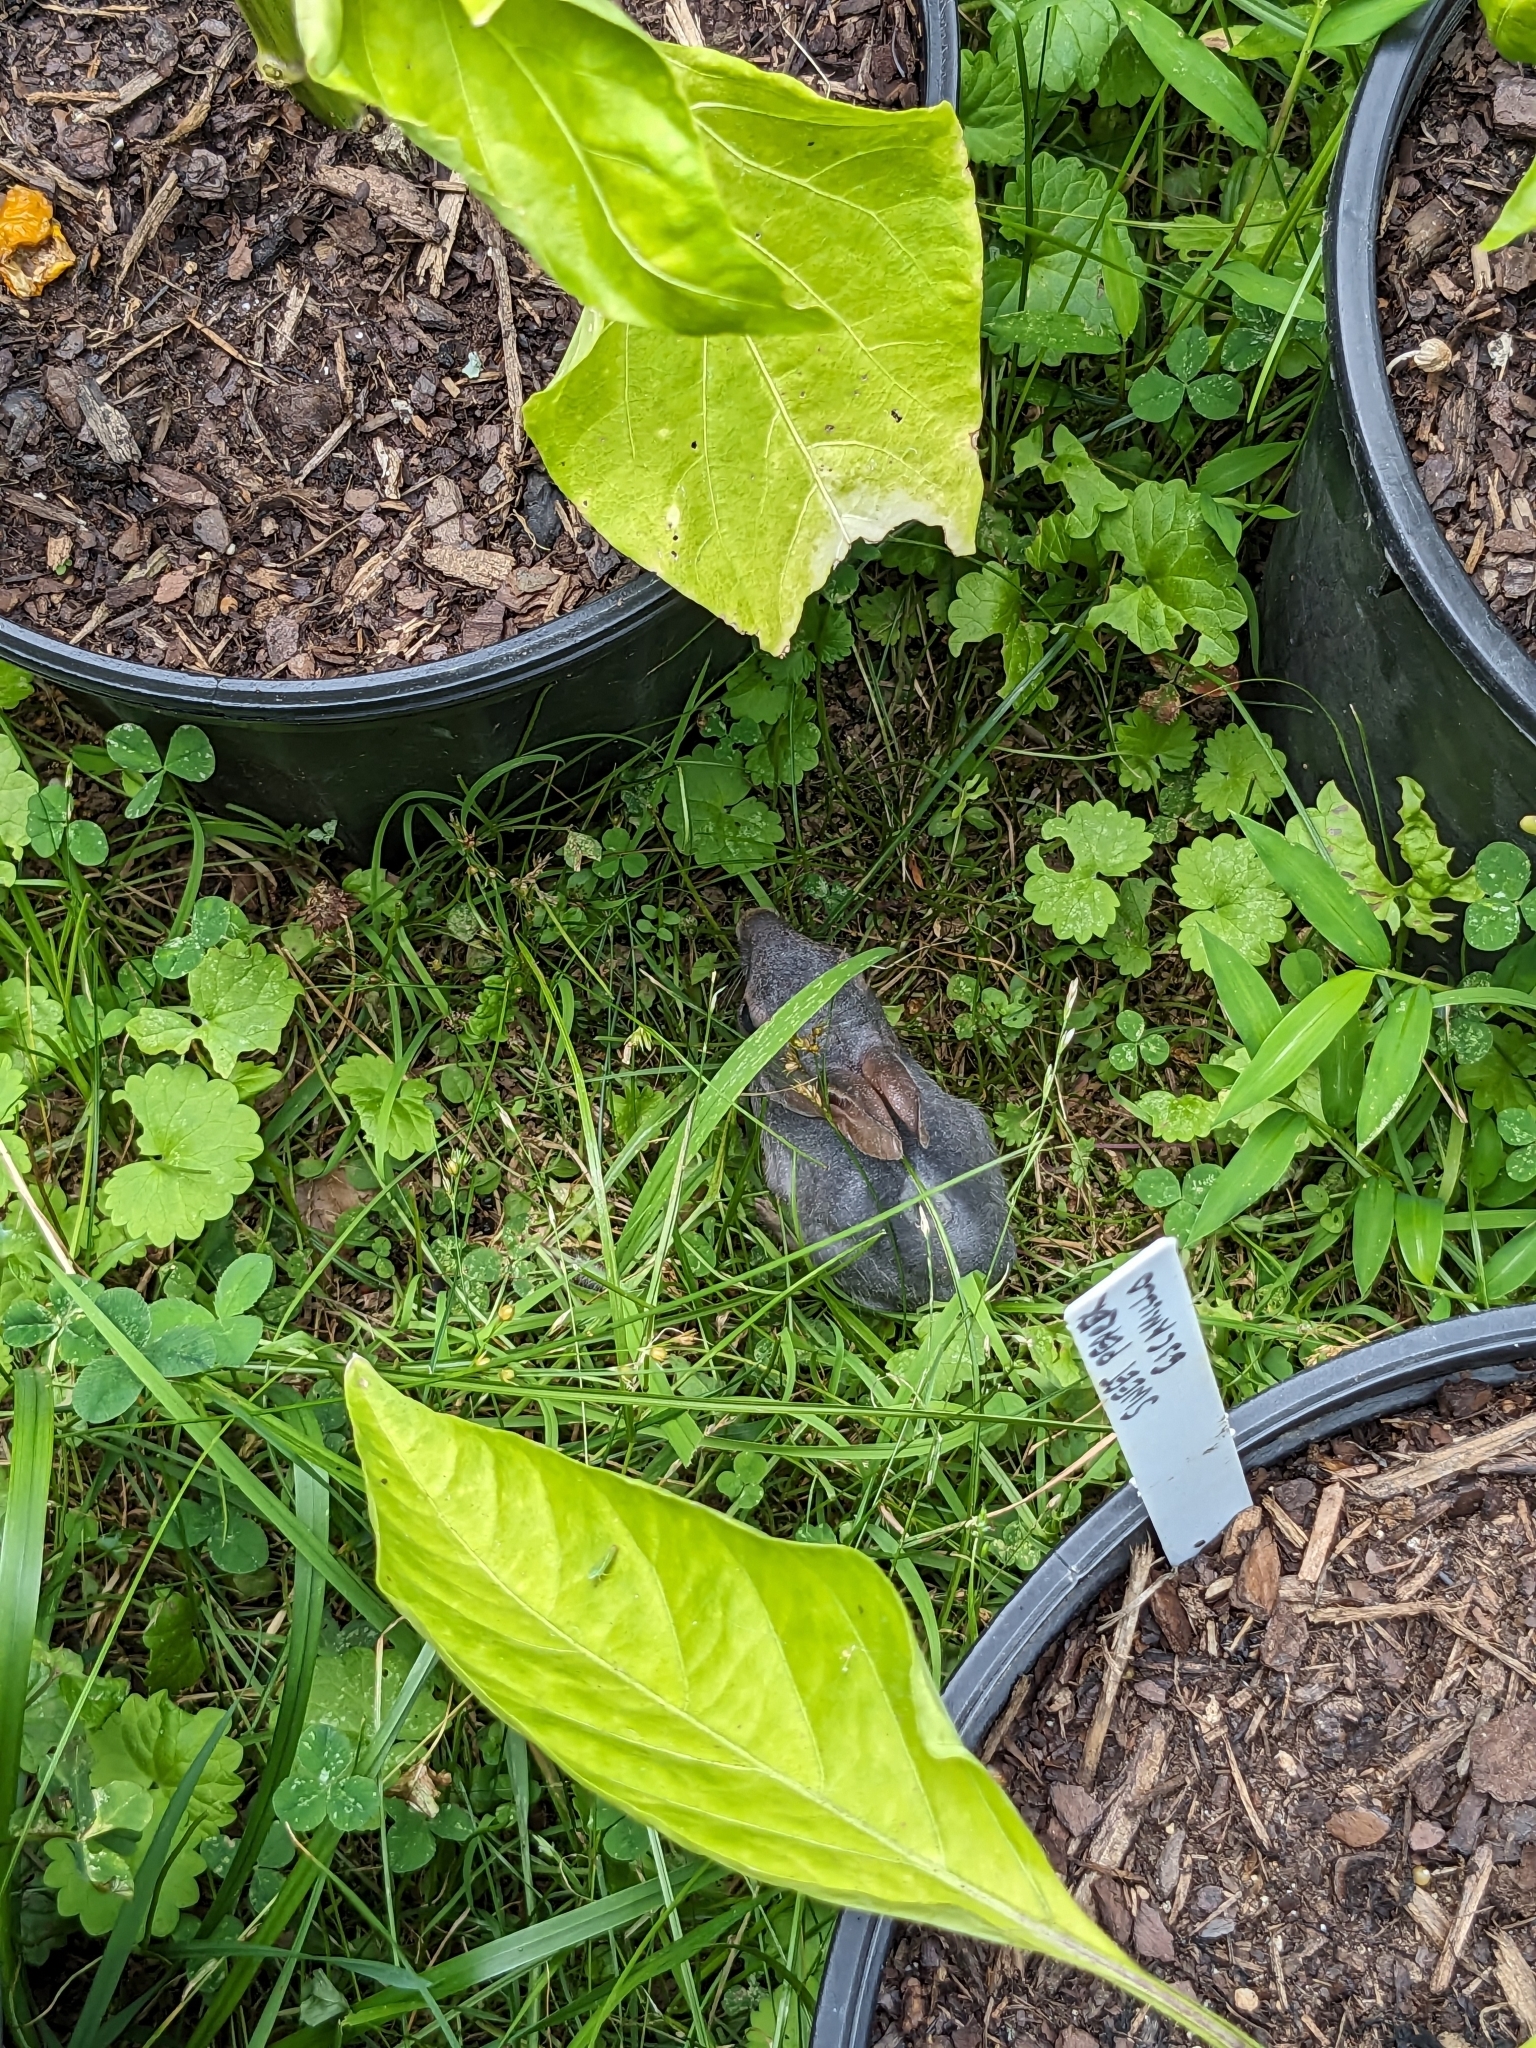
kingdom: Animalia
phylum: Chordata
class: Mammalia
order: Lagomorpha
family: Leporidae
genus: Sylvilagus
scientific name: Sylvilagus floridanus
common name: Eastern cottontail
